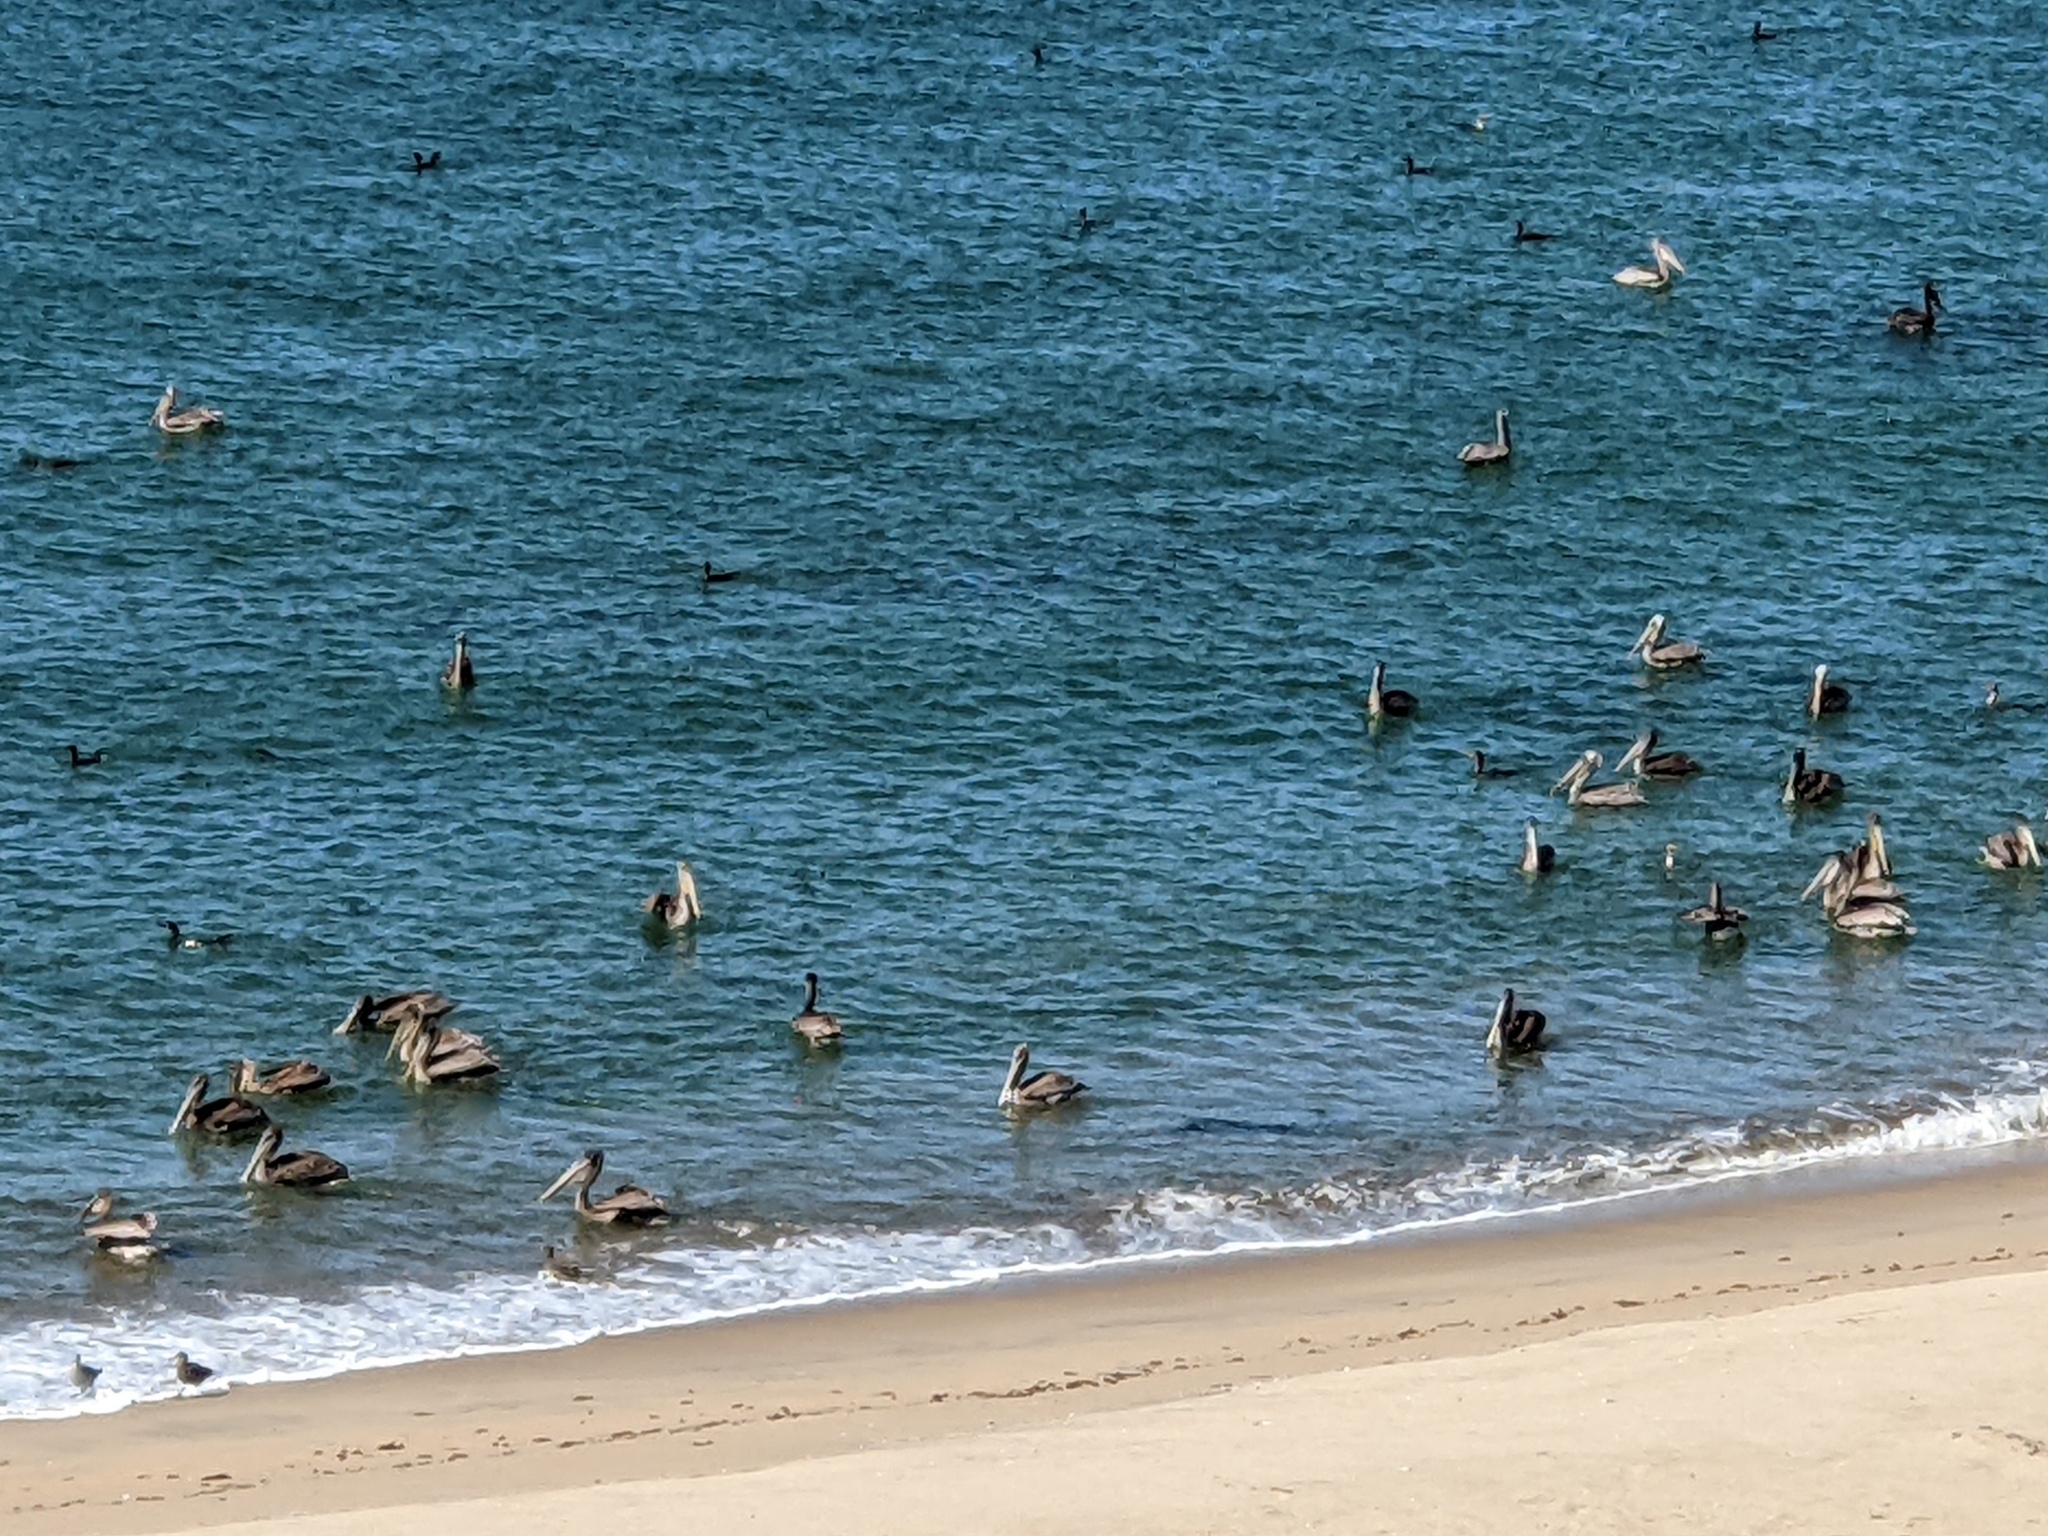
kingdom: Animalia
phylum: Chordata
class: Aves
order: Pelecaniformes
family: Pelecanidae
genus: Pelecanus
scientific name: Pelecanus occidentalis
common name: Brown pelican
